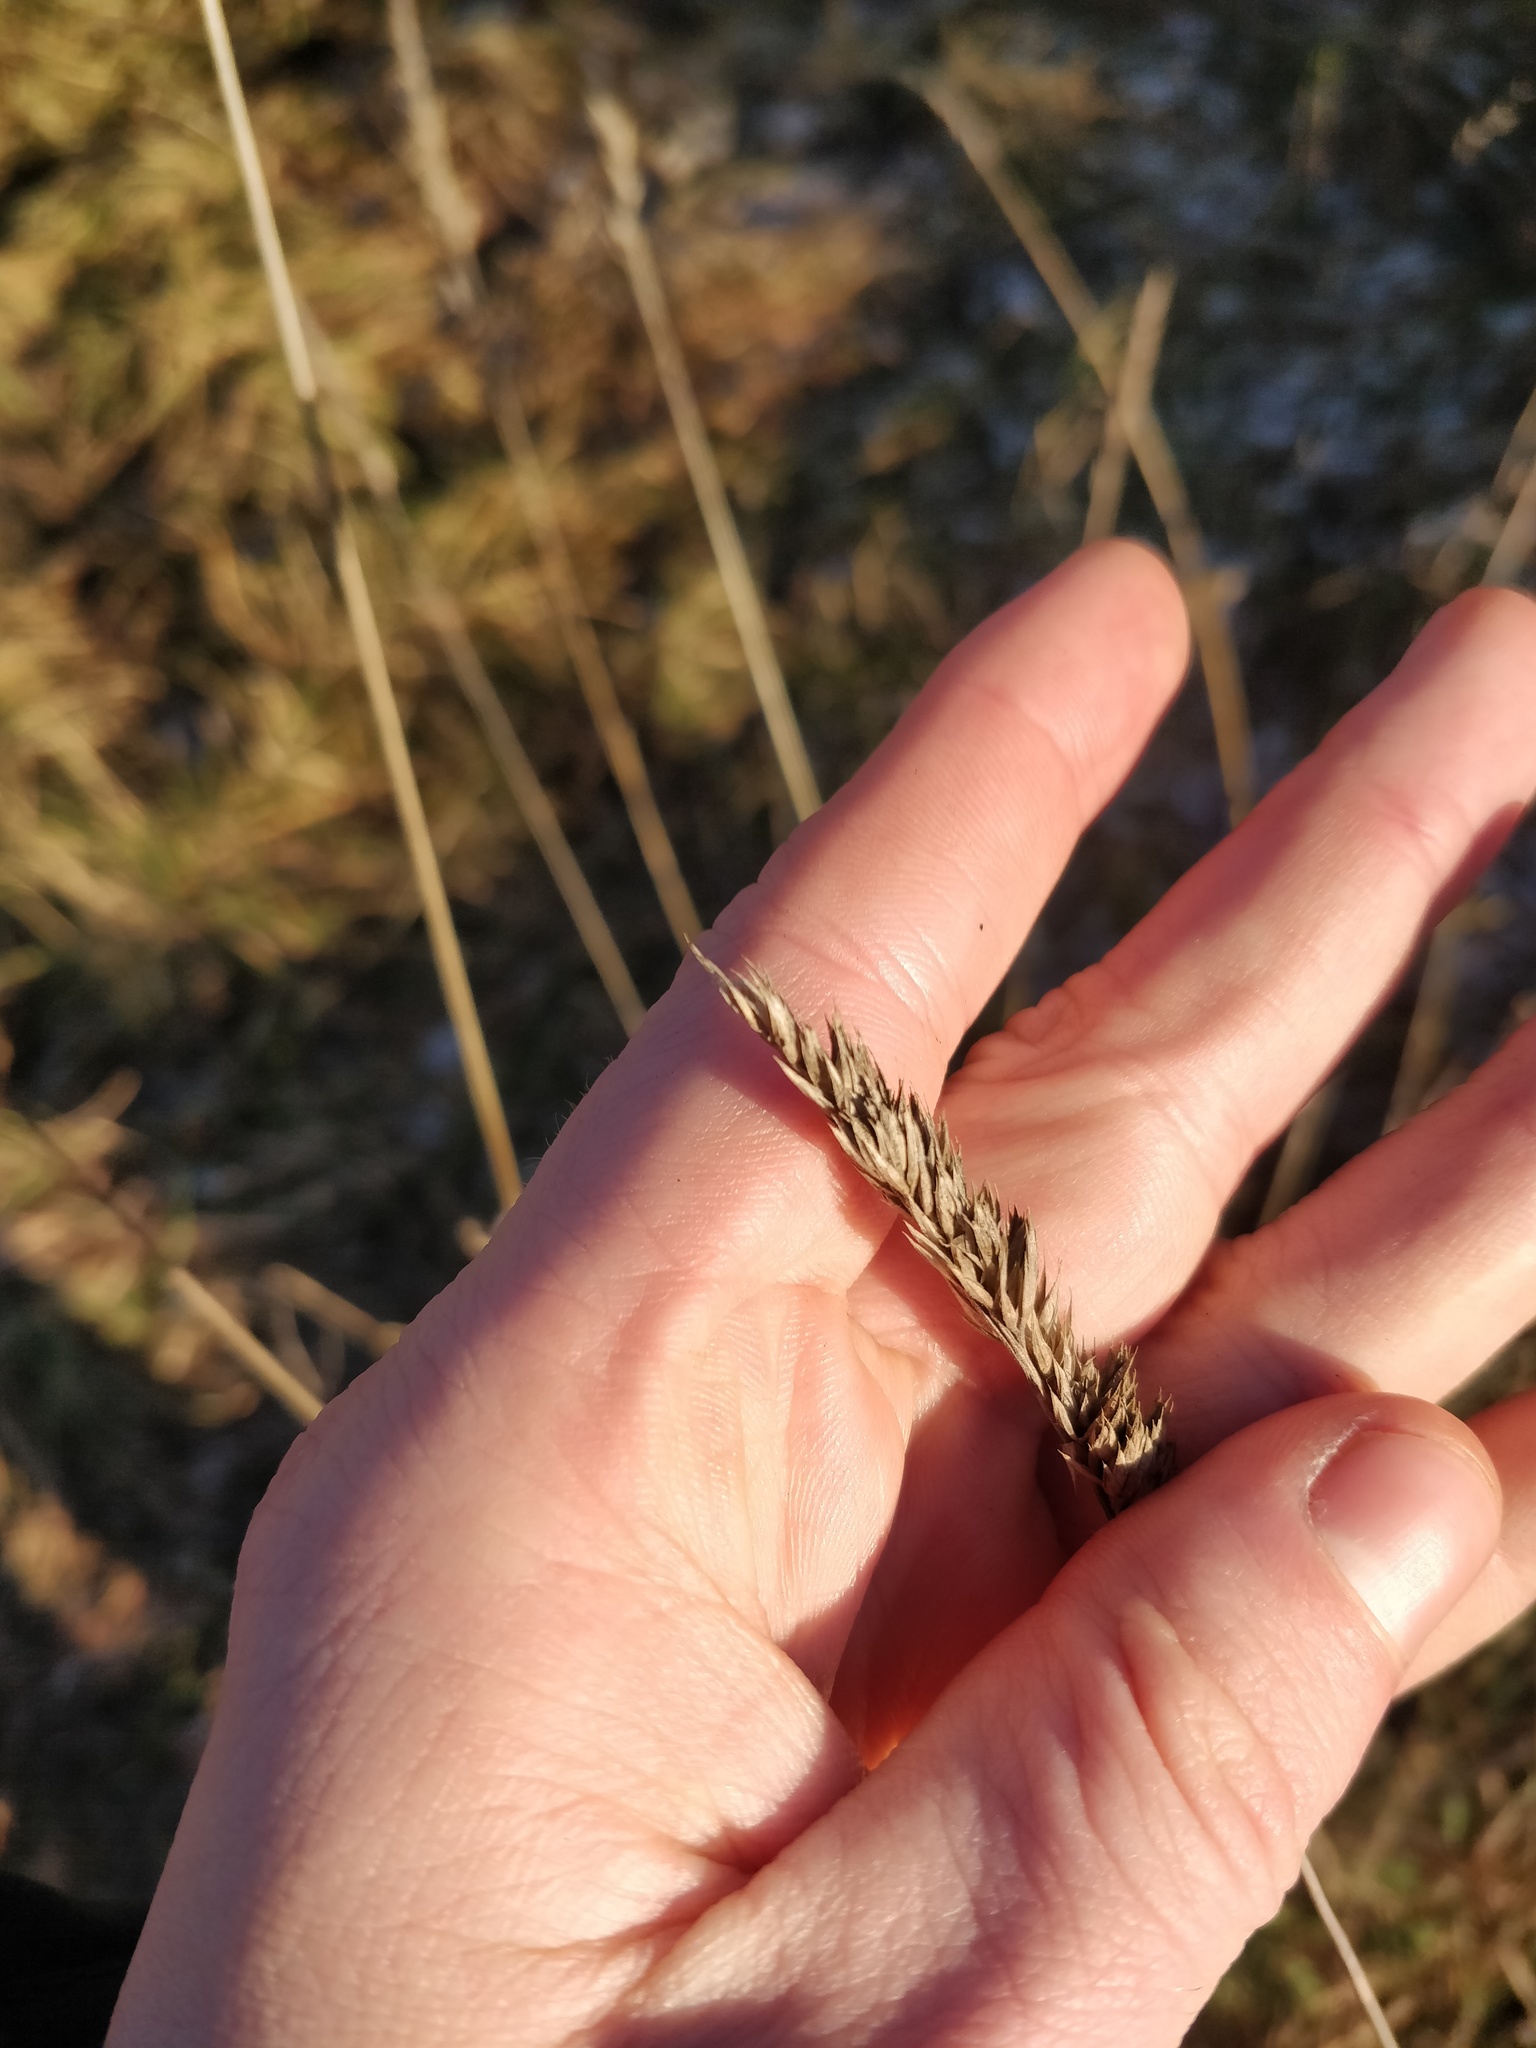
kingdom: Plantae
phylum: Tracheophyta
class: Liliopsida
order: Poales
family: Poaceae
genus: Dactylis
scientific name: Dactylis glomerata
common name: Orchardgrass
